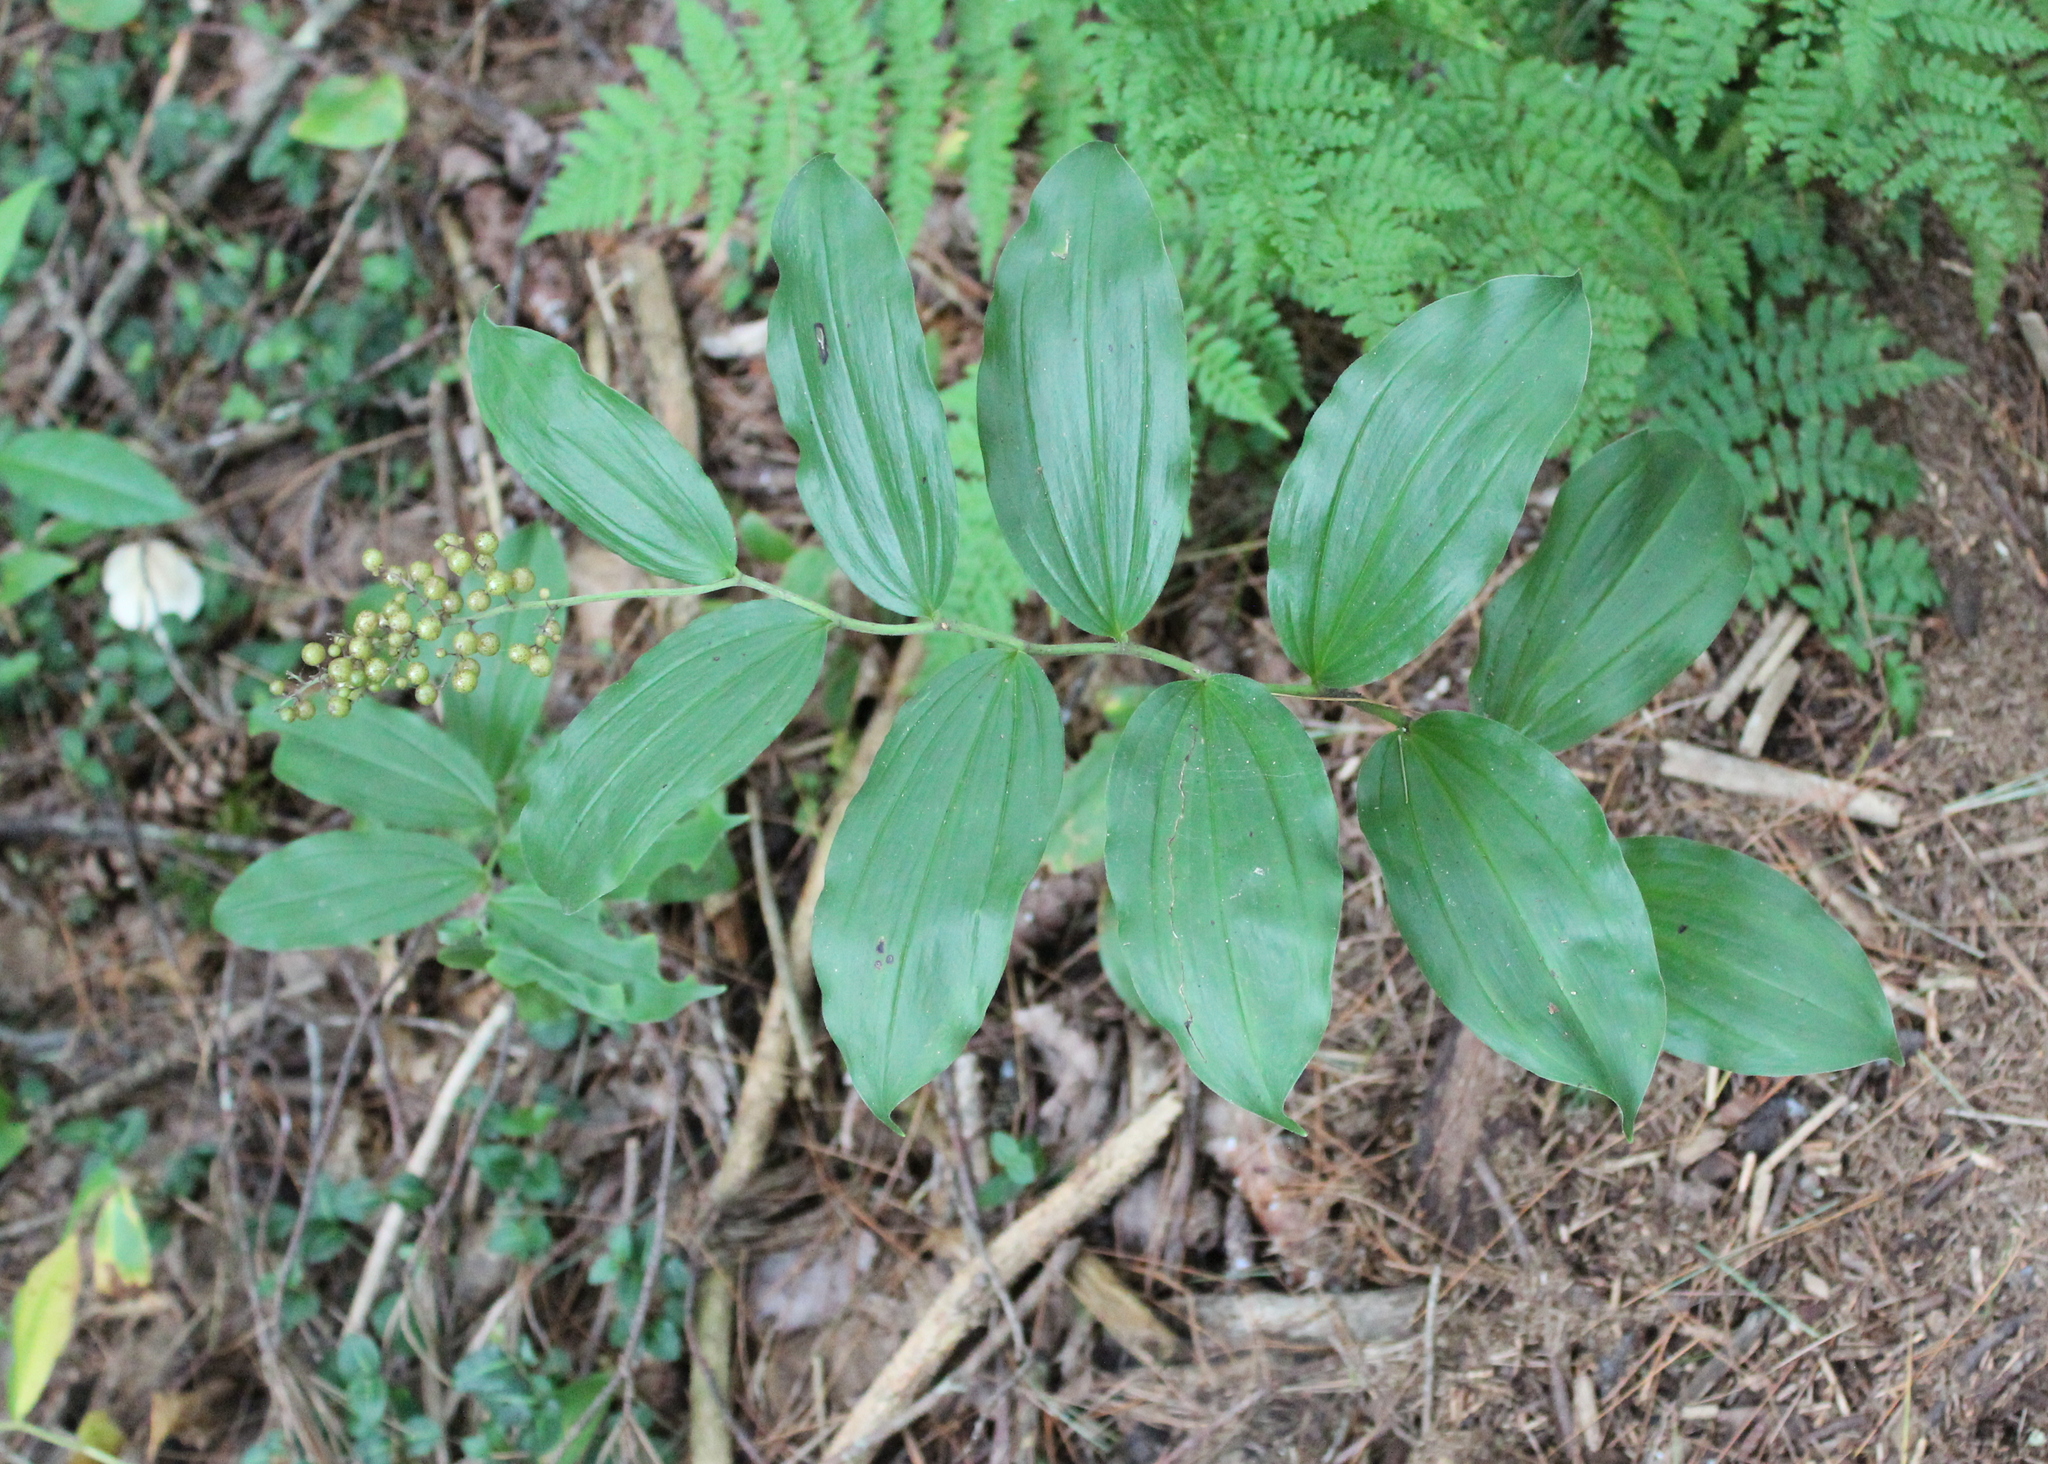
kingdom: Plantae
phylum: Tracheophyta
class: Liliopsida
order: Asparagales
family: Asparagaceae
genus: Maianthemum
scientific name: Maianthemum racemosum
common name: False spikenard
